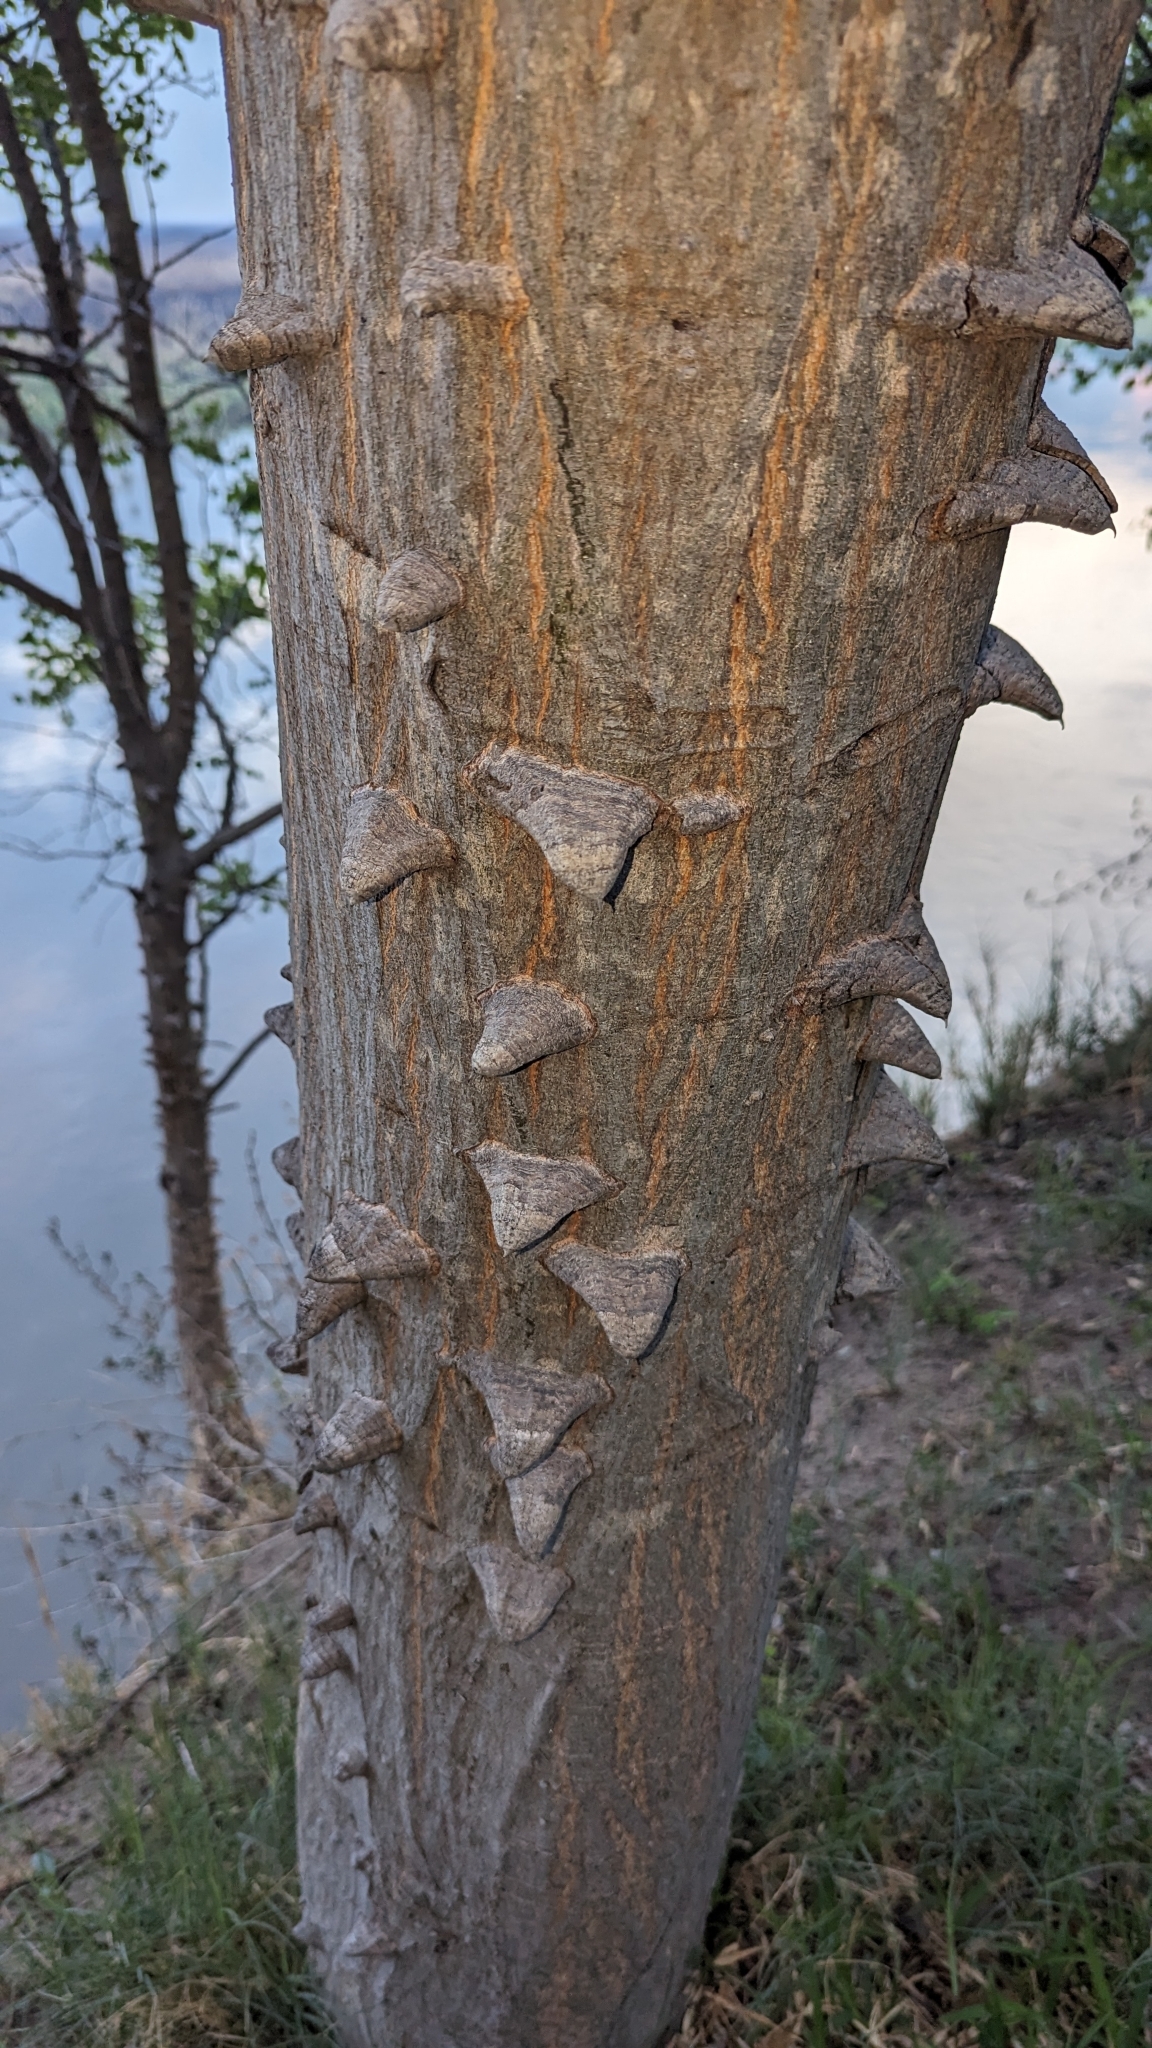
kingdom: Plantae
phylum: Tracheophyta
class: Magnoliopsida
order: Fabales
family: Fabaceae
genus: Senegalia
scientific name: Senegalia nigrescens
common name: Knobthorn
